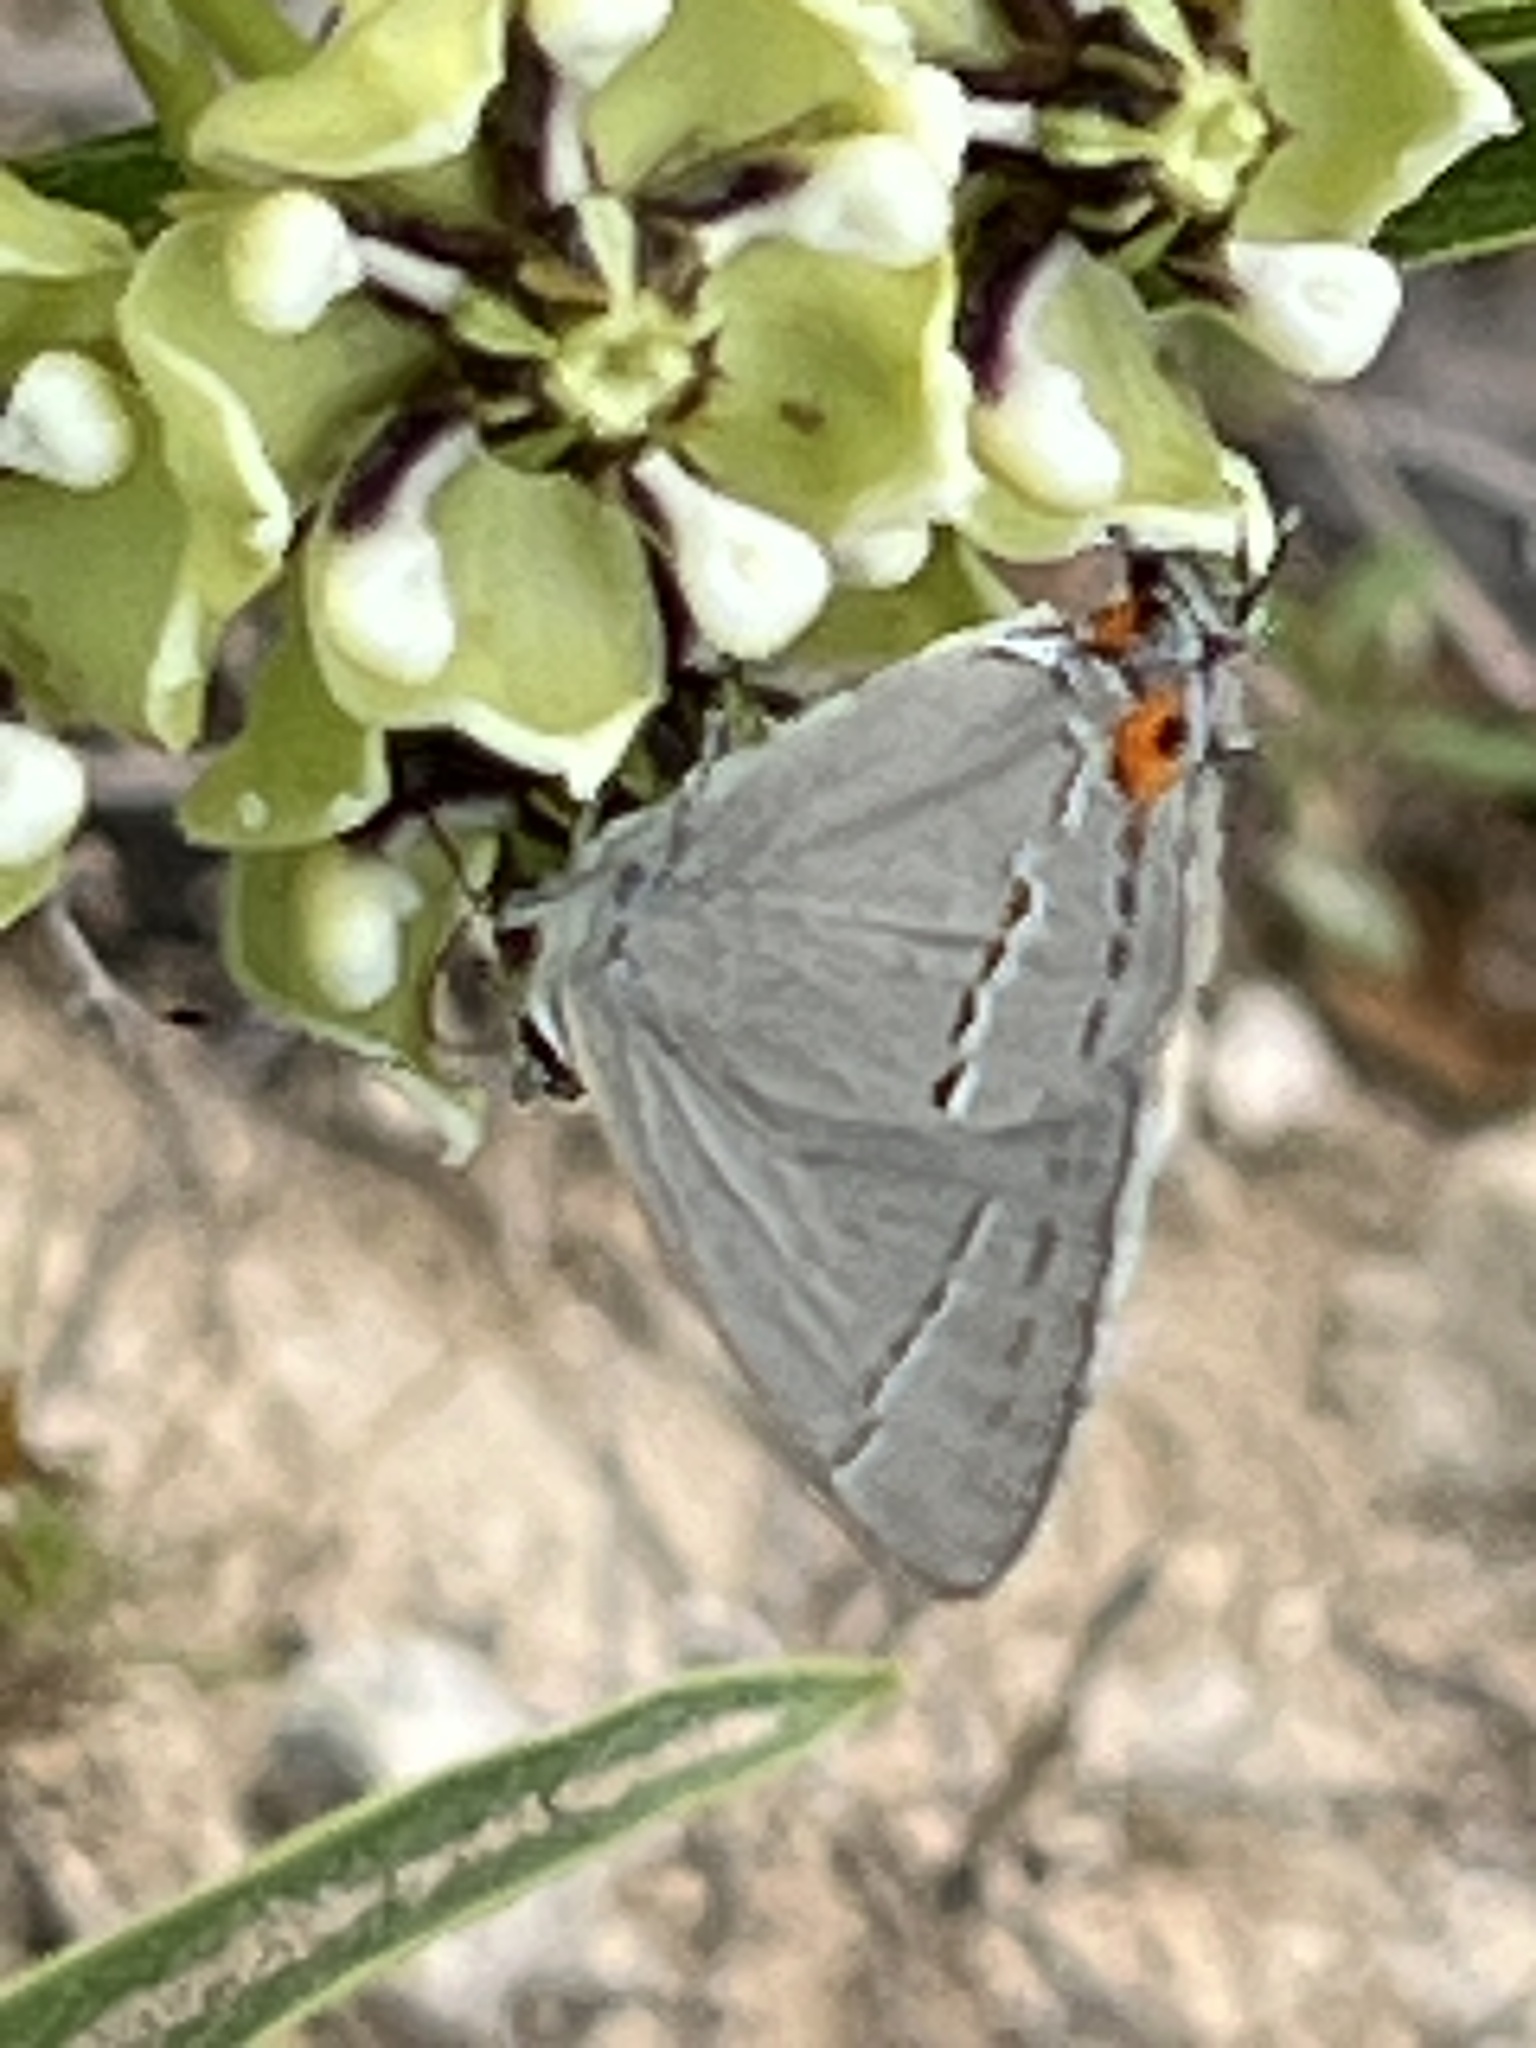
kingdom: Animalia
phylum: Arthropoda
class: Insecta
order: Lepidoptera
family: Lycaenidae
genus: Strymon
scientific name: Strymon melinus
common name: Gray hairstreak
